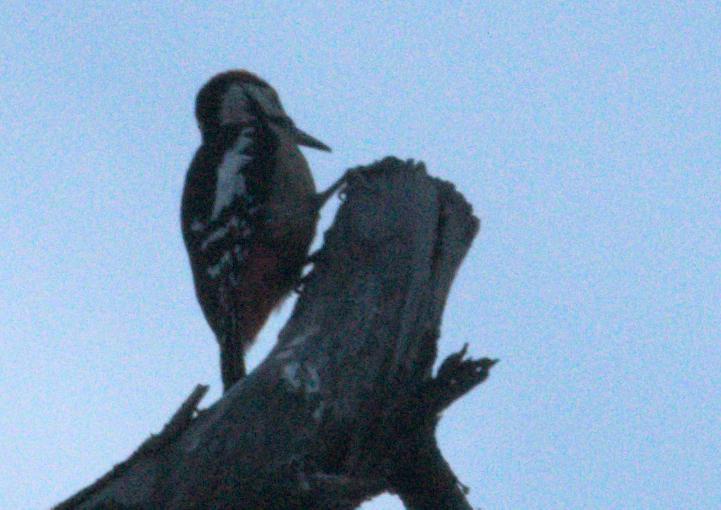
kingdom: Animalia
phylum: Chordata
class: Aves
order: Piciformes
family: Picidae
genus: Dendrocopos
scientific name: Dendrocopos himalayensis
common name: Himalayan woodpecker
